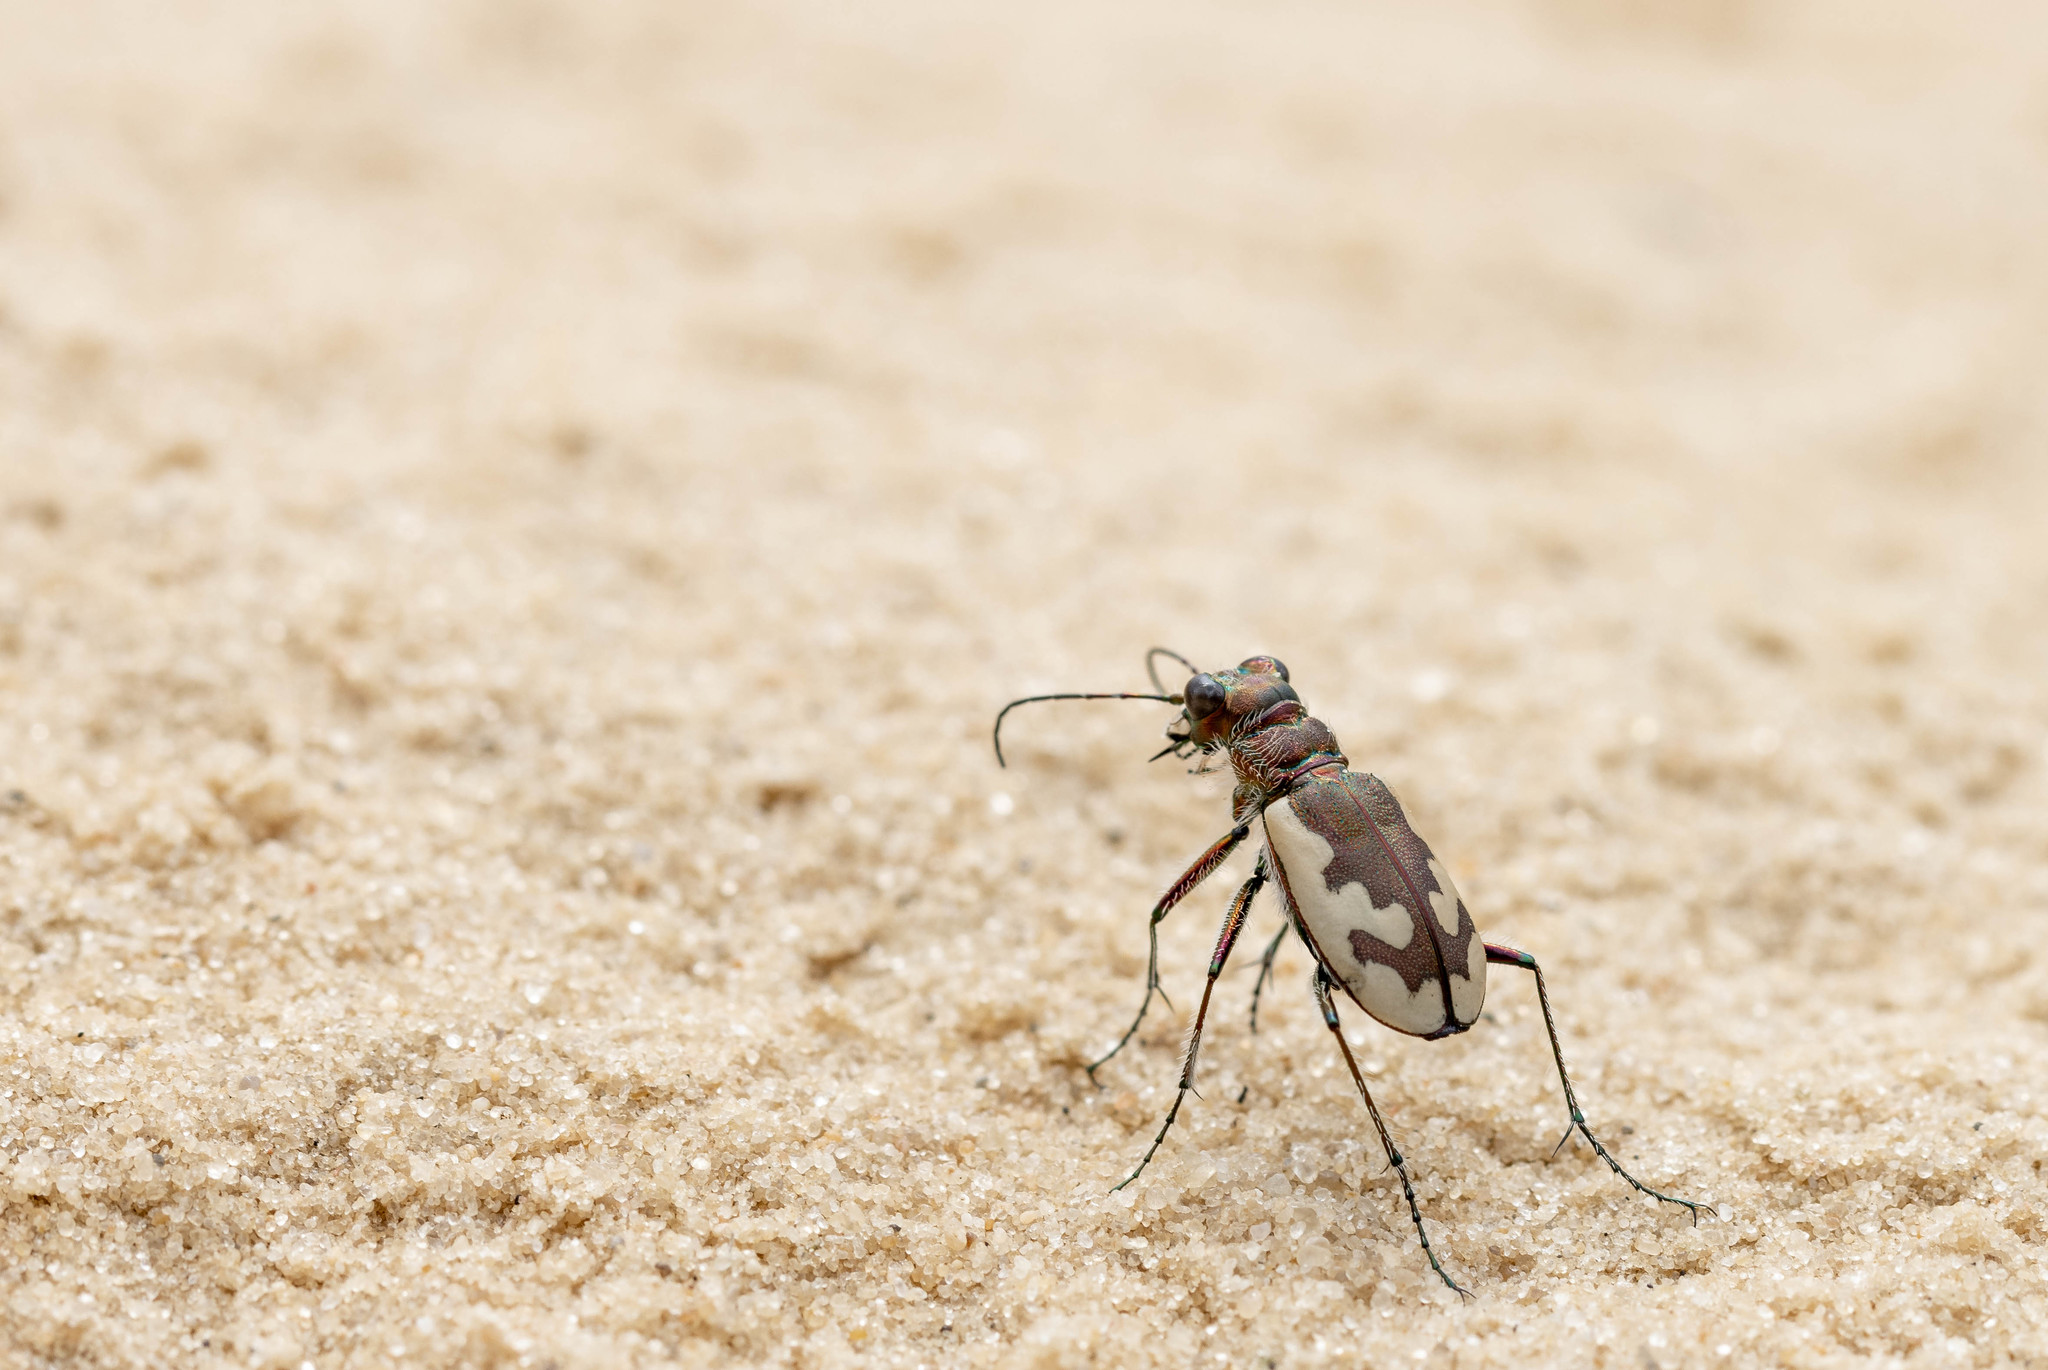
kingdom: Animalia
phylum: Arthropoda
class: Insecta
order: Coleoptera
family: Carabidae
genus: Cicindela
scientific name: Cicindela sahlbergii
